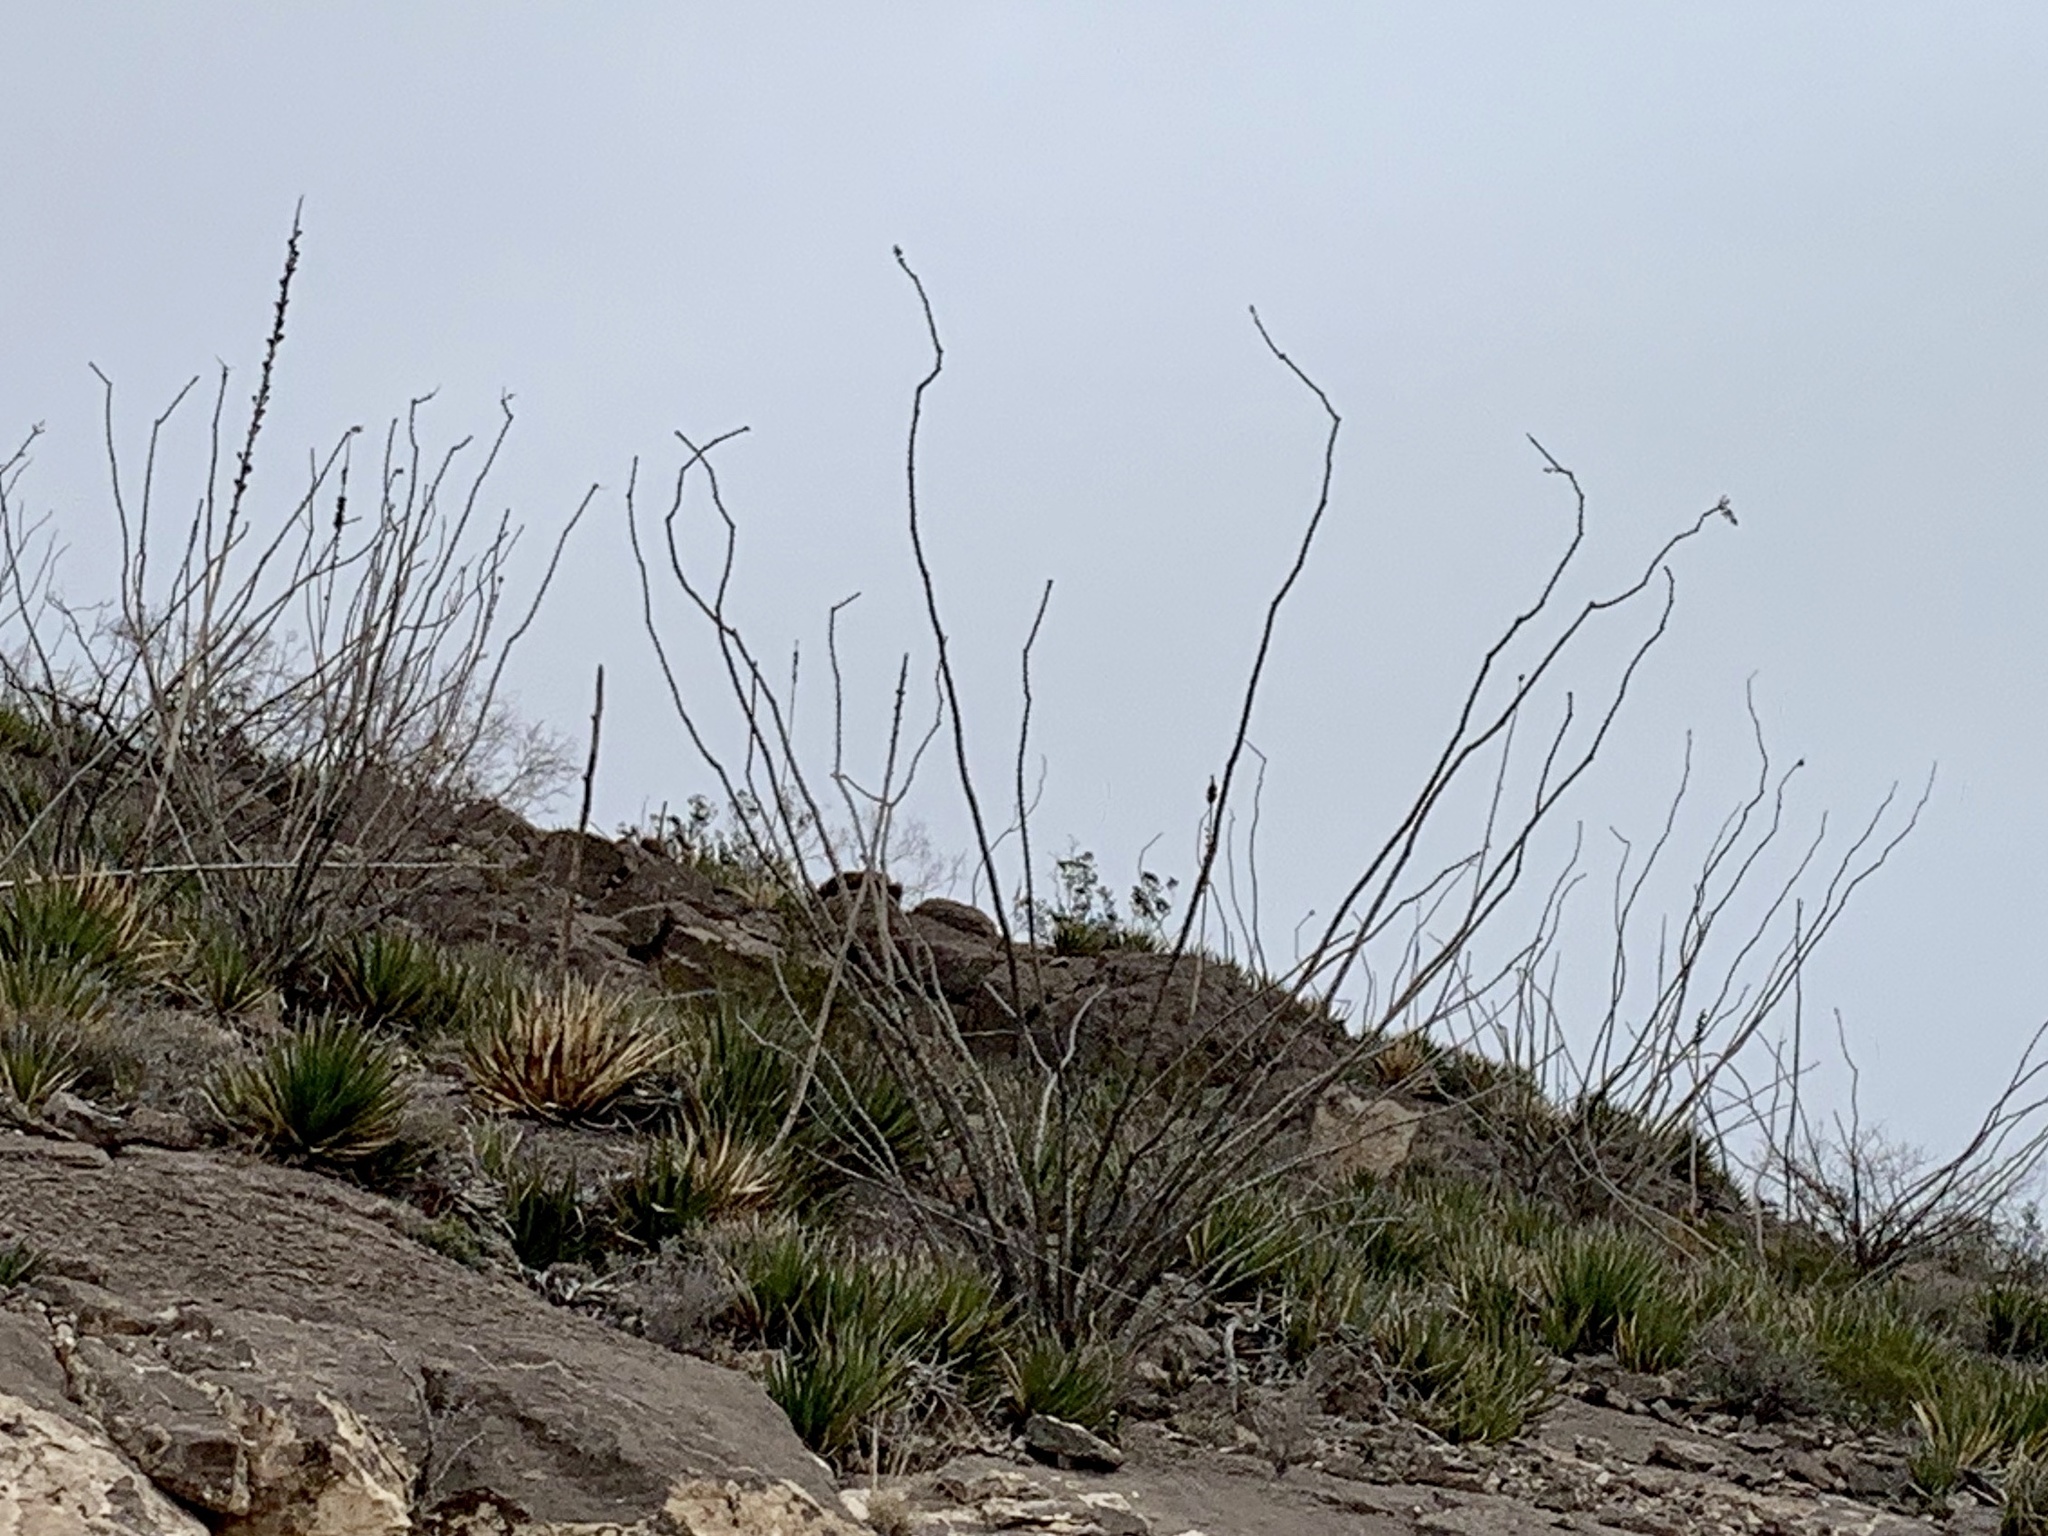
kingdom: Plantae
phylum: Tracheophyta
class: Magnoliopsida
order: Ericales
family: Fouquieriaceae
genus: Fouquieria
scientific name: Fouquieria splendens
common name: Vine-cactus
